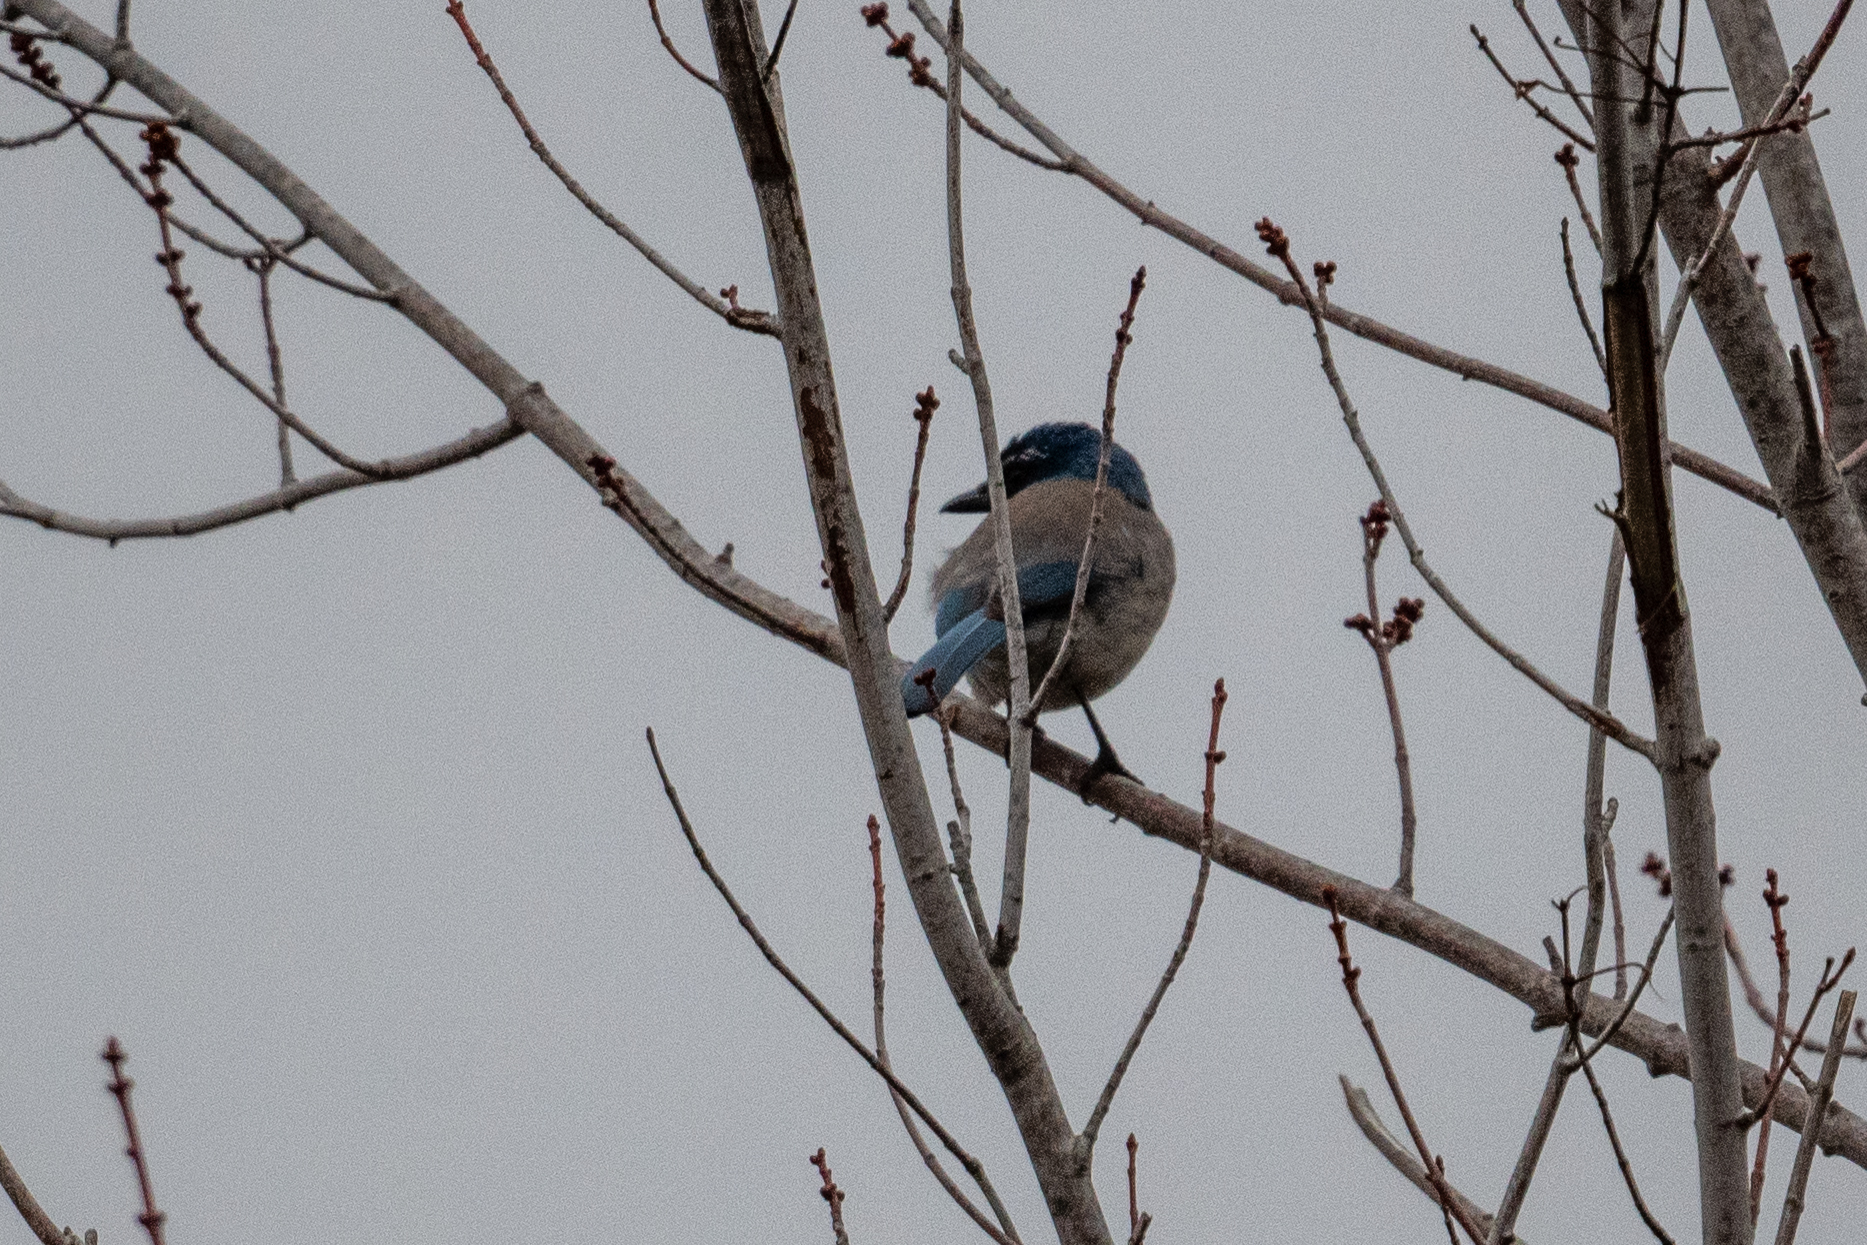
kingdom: Animalia
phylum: Chordata
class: Aves
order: Passeriformes
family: Corvidae
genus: Aphelocoma
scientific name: Aphelocoma californica
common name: California scrub-jay
